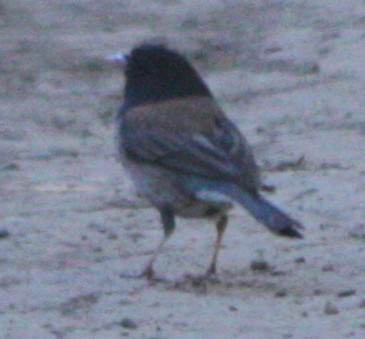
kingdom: Animalia
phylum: Chordata
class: Aves
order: Passeriformes
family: Passerellidae
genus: Junco
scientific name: Junco hyemalis
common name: Dark-eyed junco
